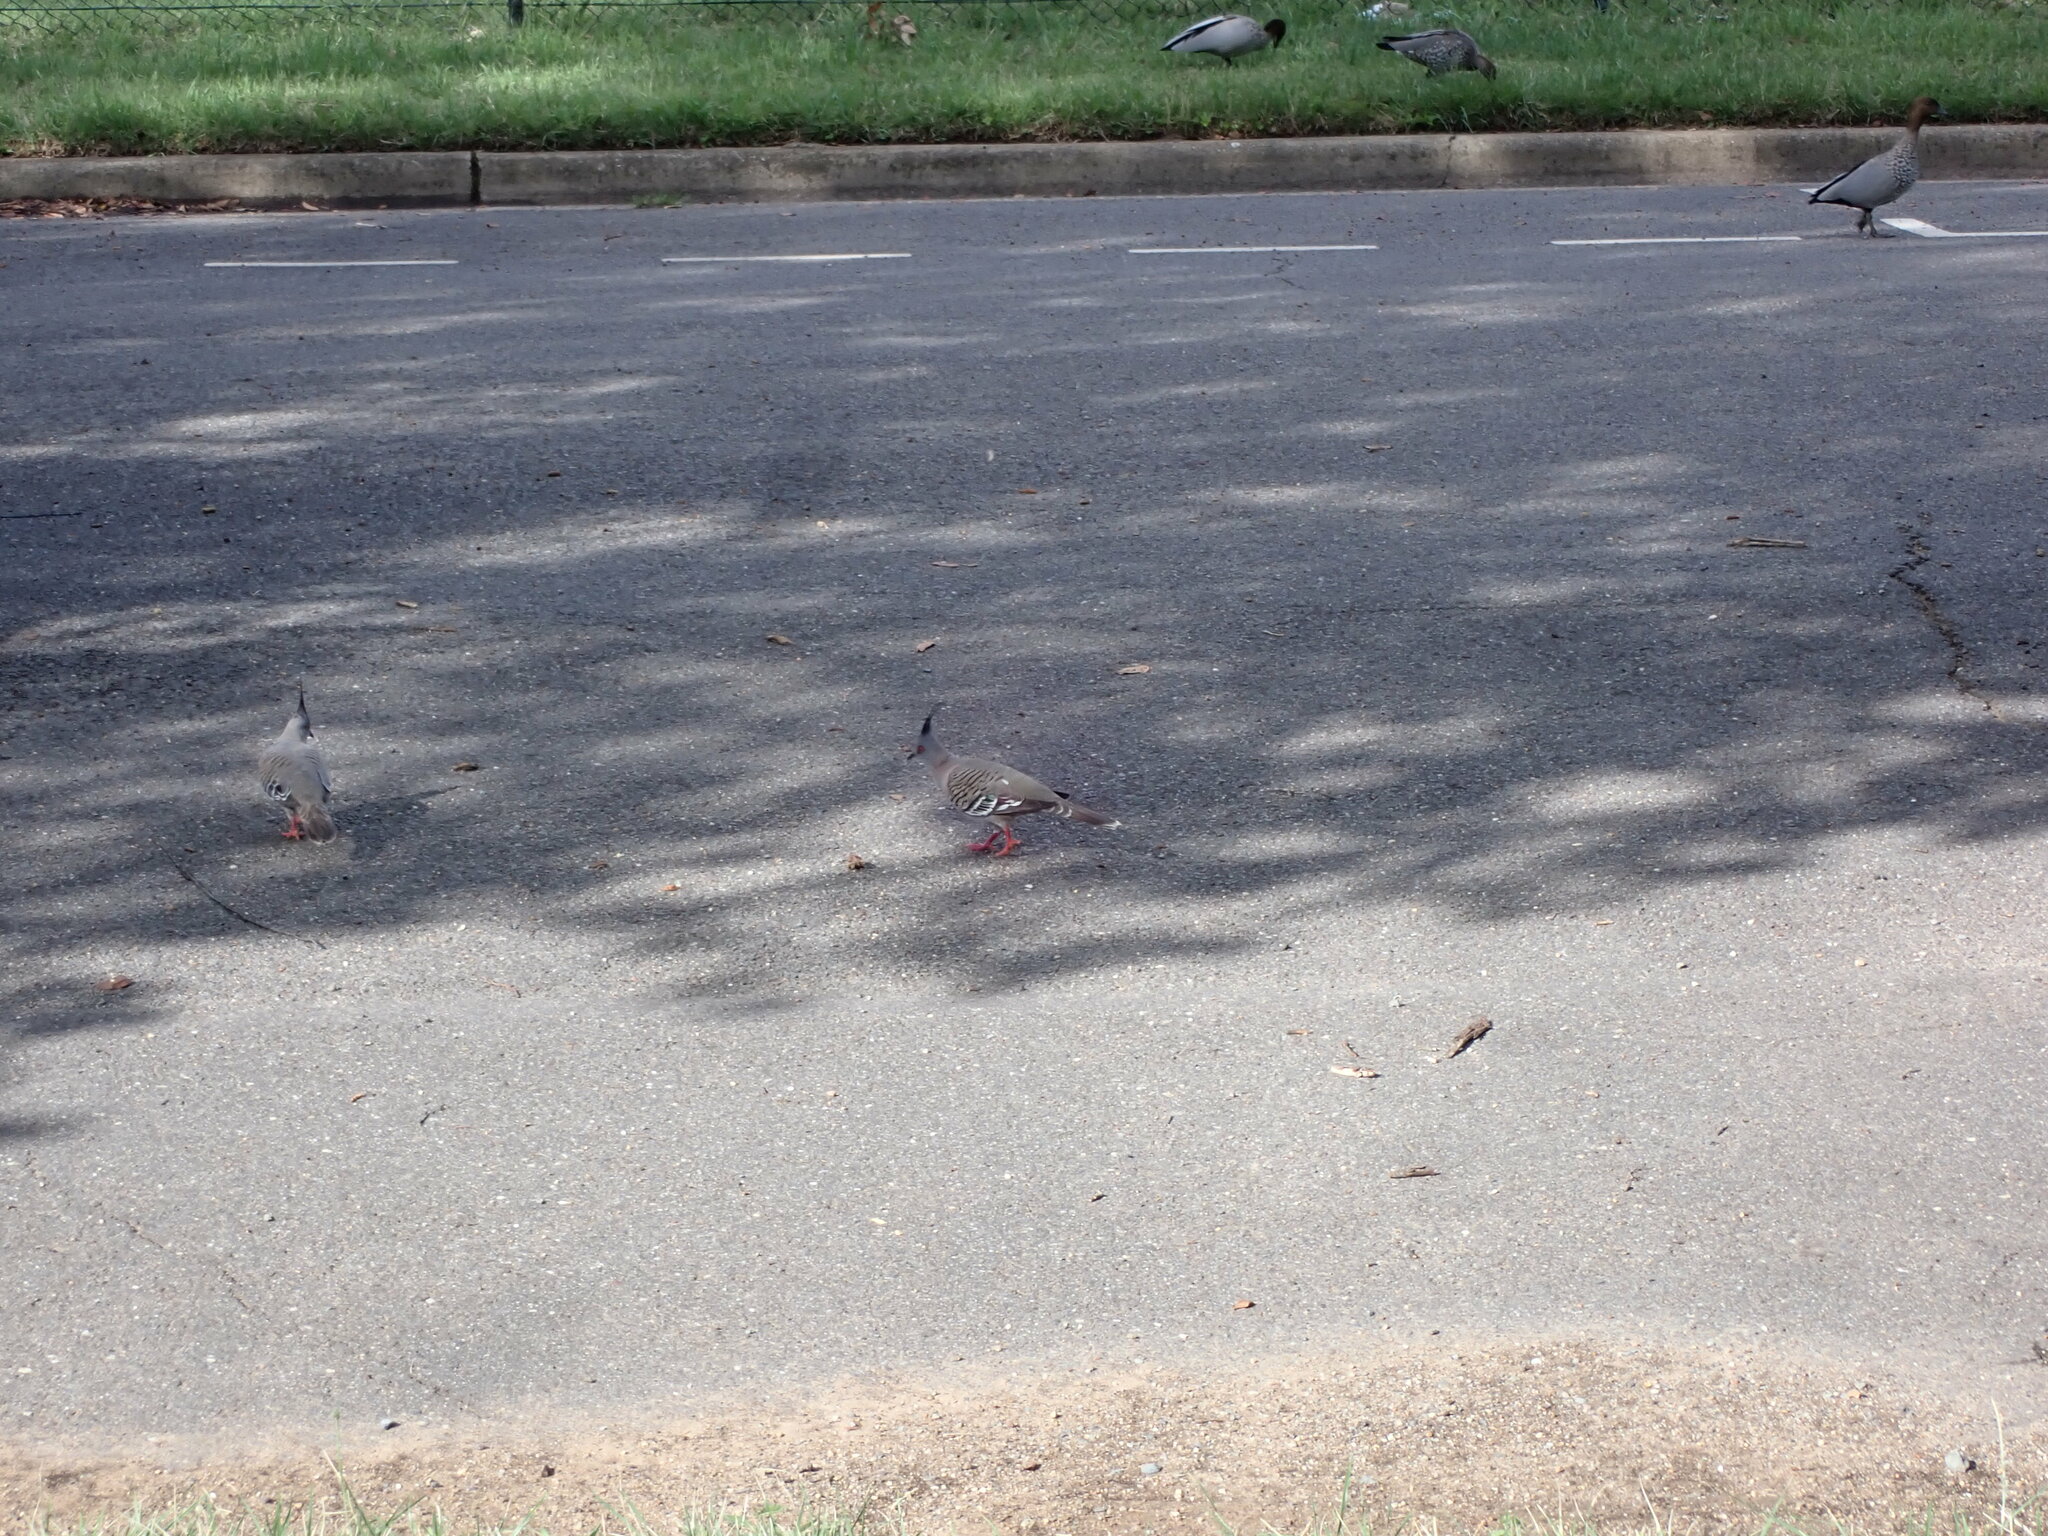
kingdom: Animalia
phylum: Chordata
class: Aves
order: Columbiformes
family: Columbidae
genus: Ocyphaps
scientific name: Ocyphaps lophotes
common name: Crested pigeon
